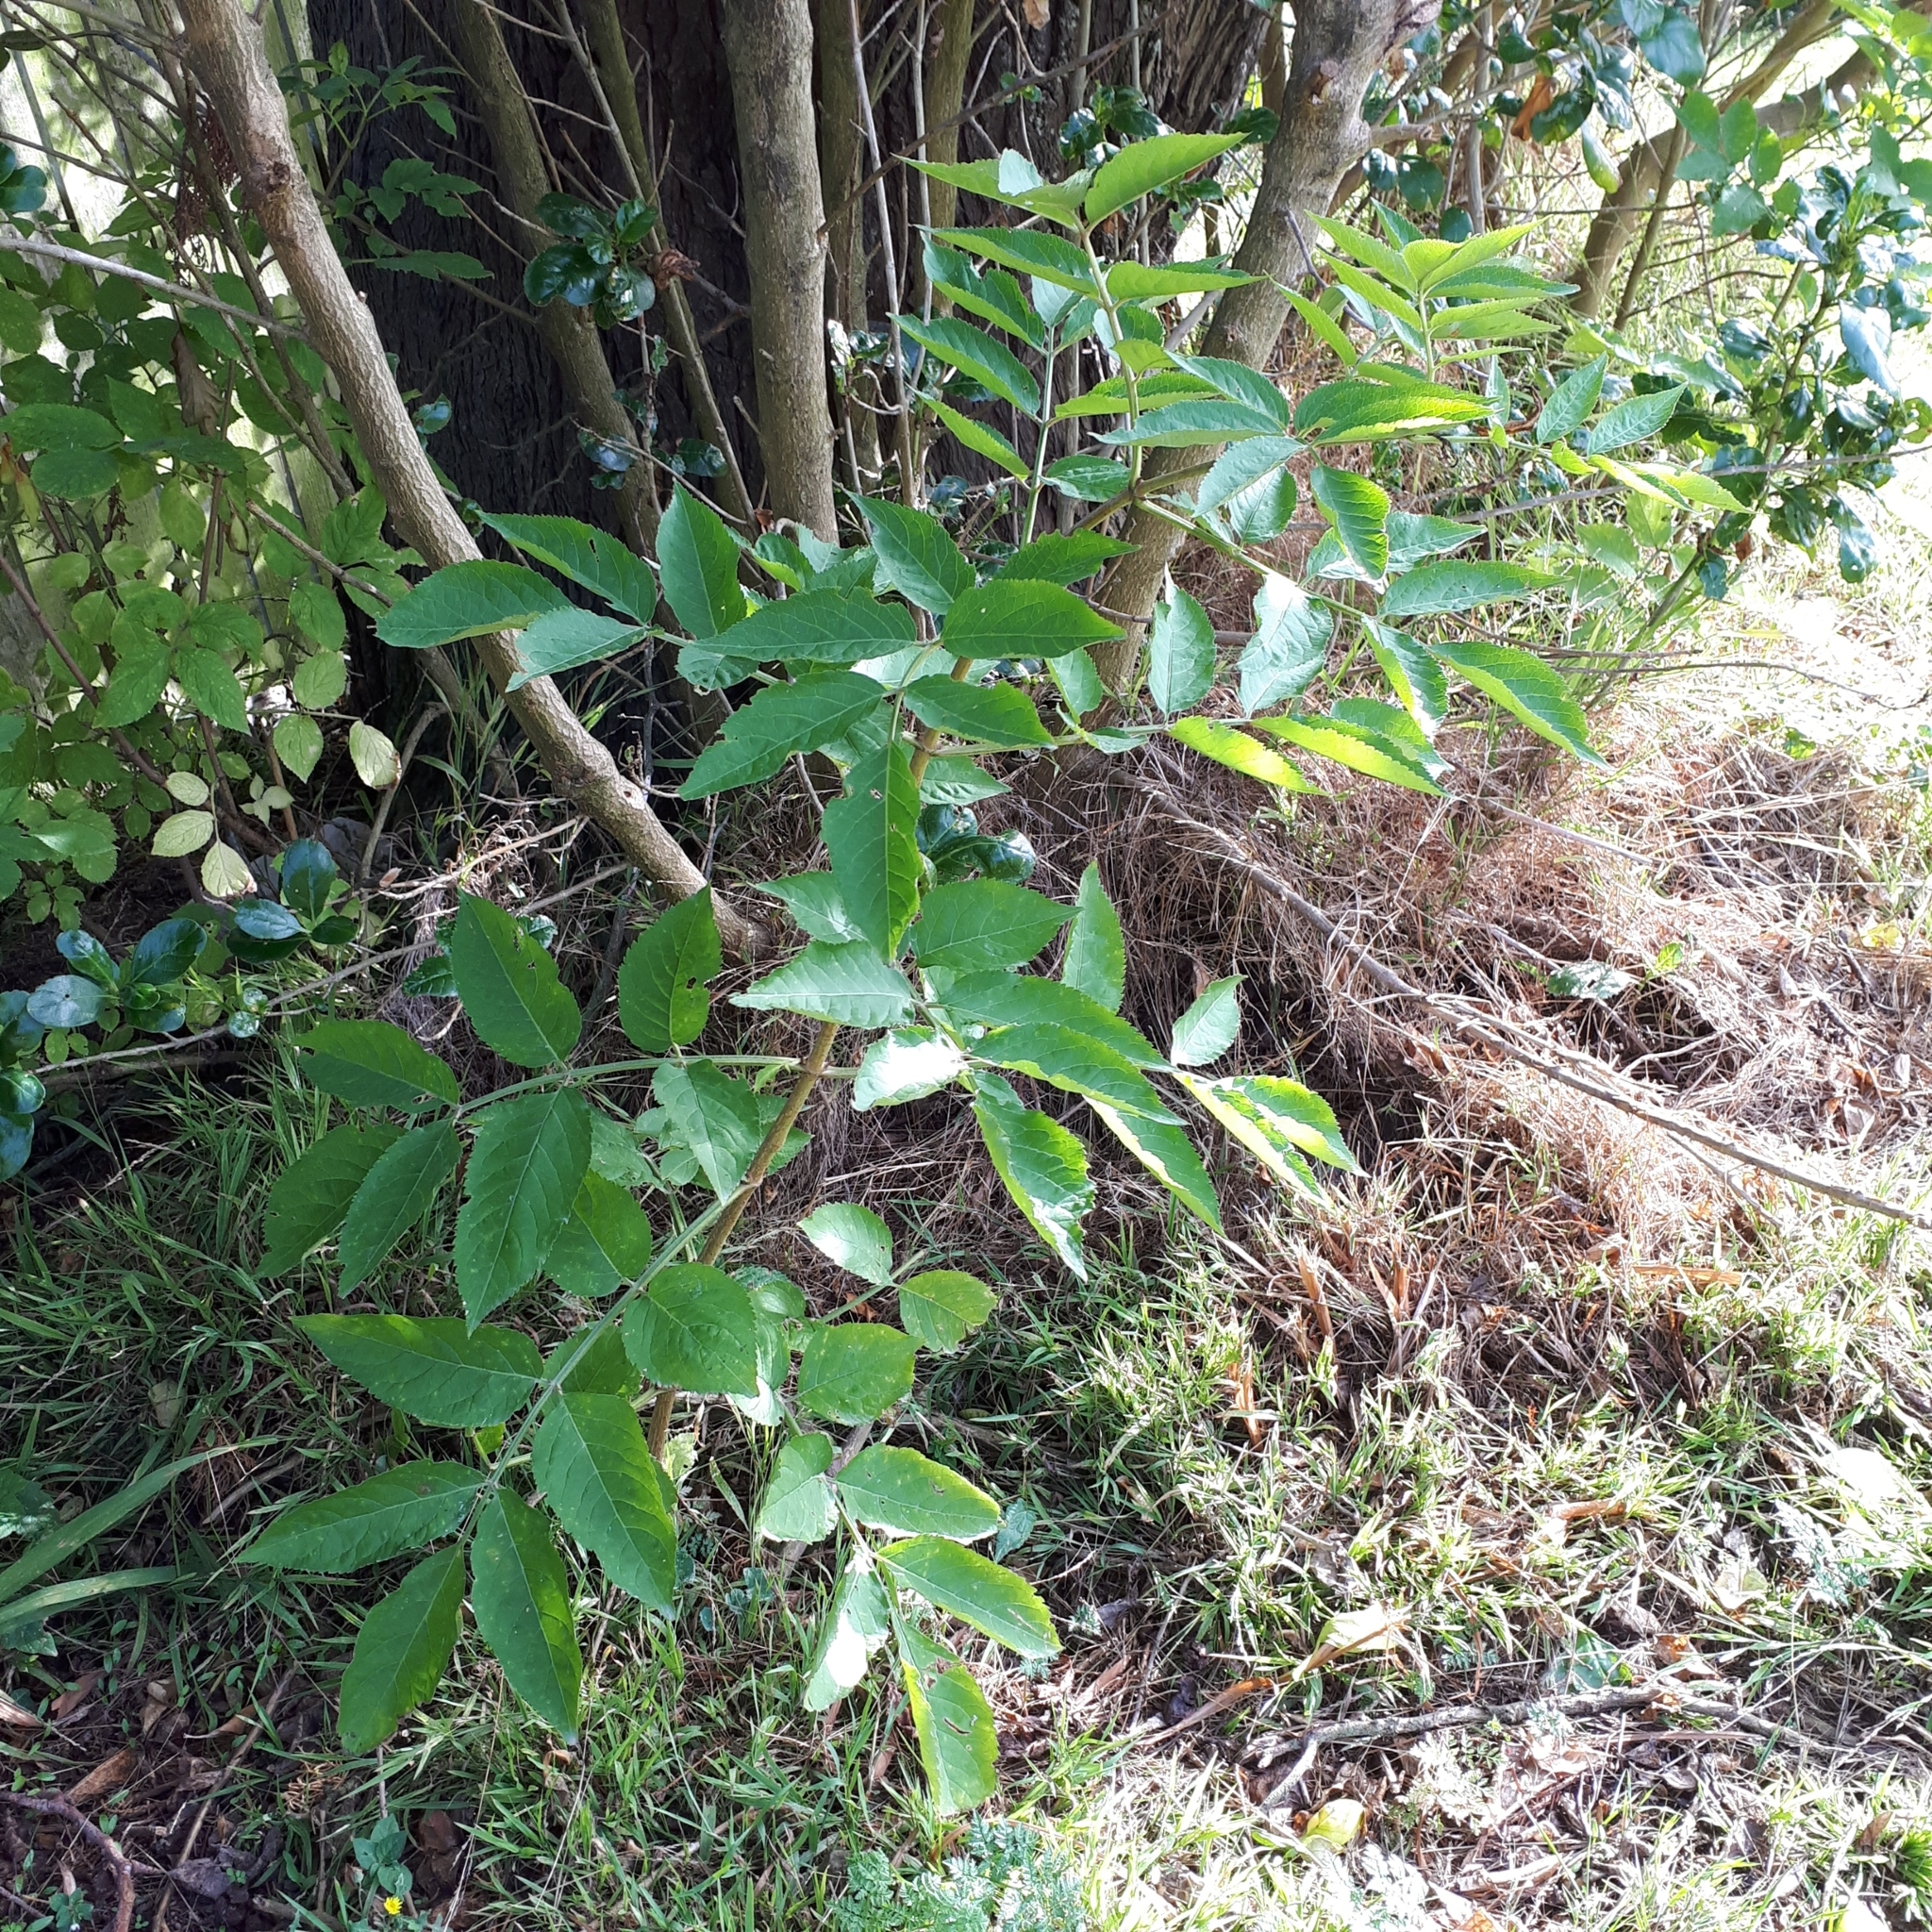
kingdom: Plantae
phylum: Tracheophyta
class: Magnoliopsida
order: Dipsacales
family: Viburnaceae
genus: Sambucus
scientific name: Sambucus nigra
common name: Elder
